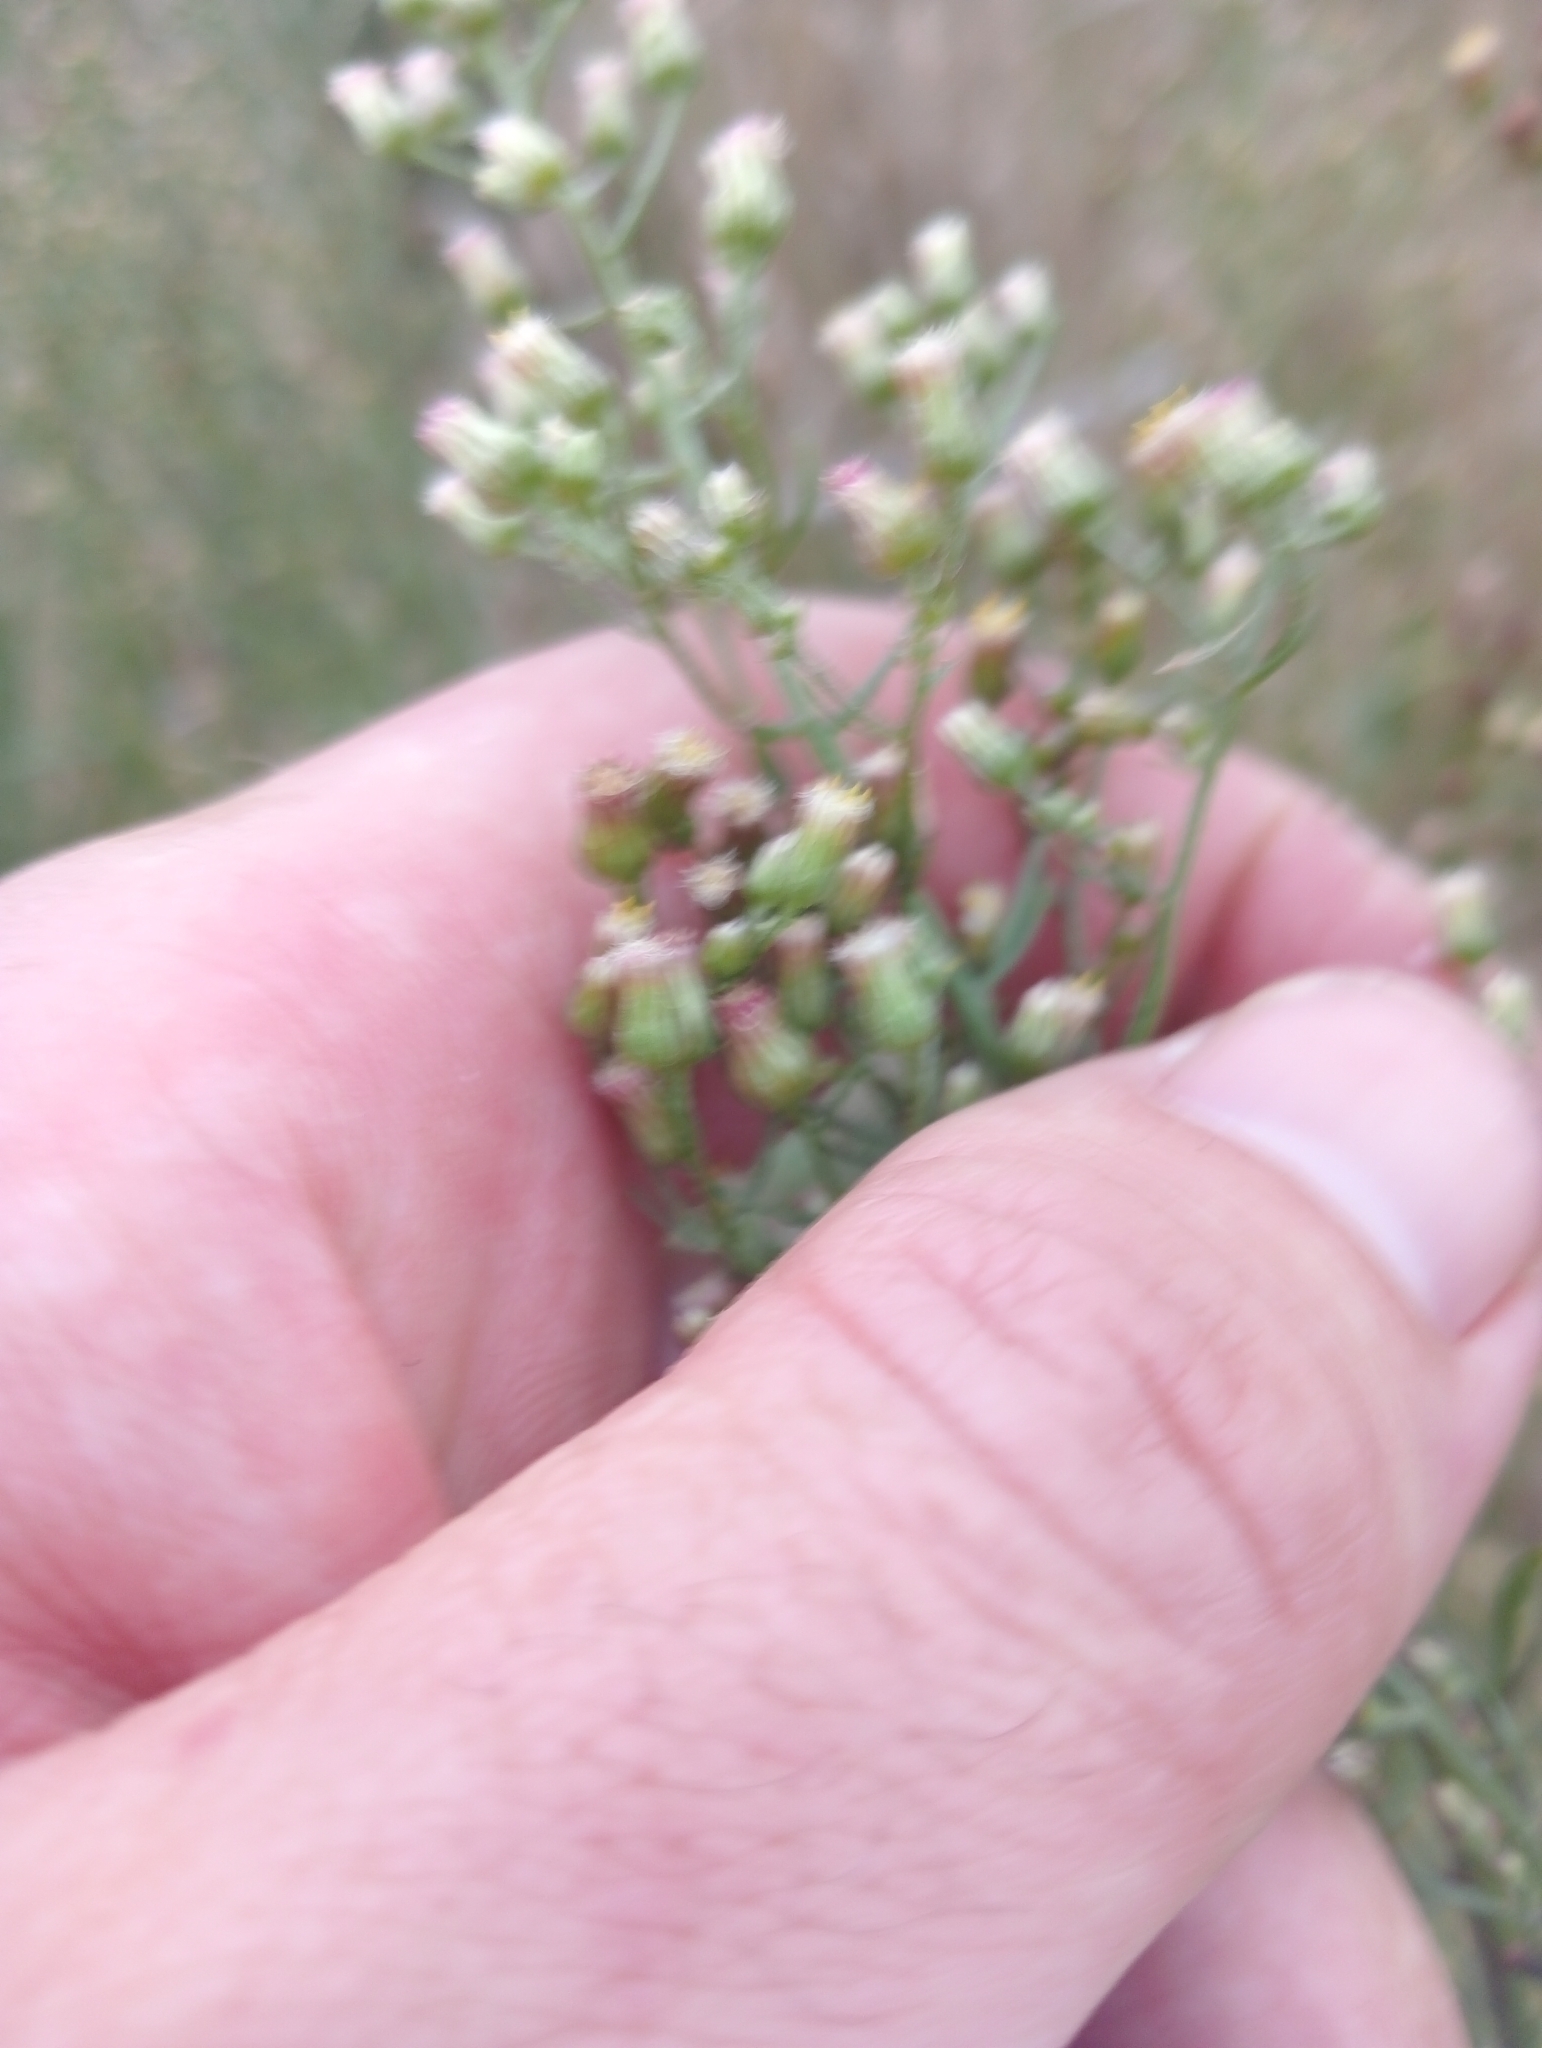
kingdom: Plantae
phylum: Tracheophyta
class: Magnoliopsida
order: Asterales
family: Asteraceae
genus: Erigeron
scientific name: Erigeron floribundus
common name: Bilbao fleabane
